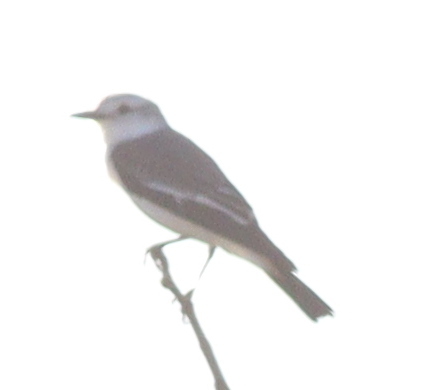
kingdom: Animalia
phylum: Chordata
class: Aves
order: Passeriformes
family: Tyrannidae
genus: Xolmis
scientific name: Xolmis velatus
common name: White-rumped monjita
